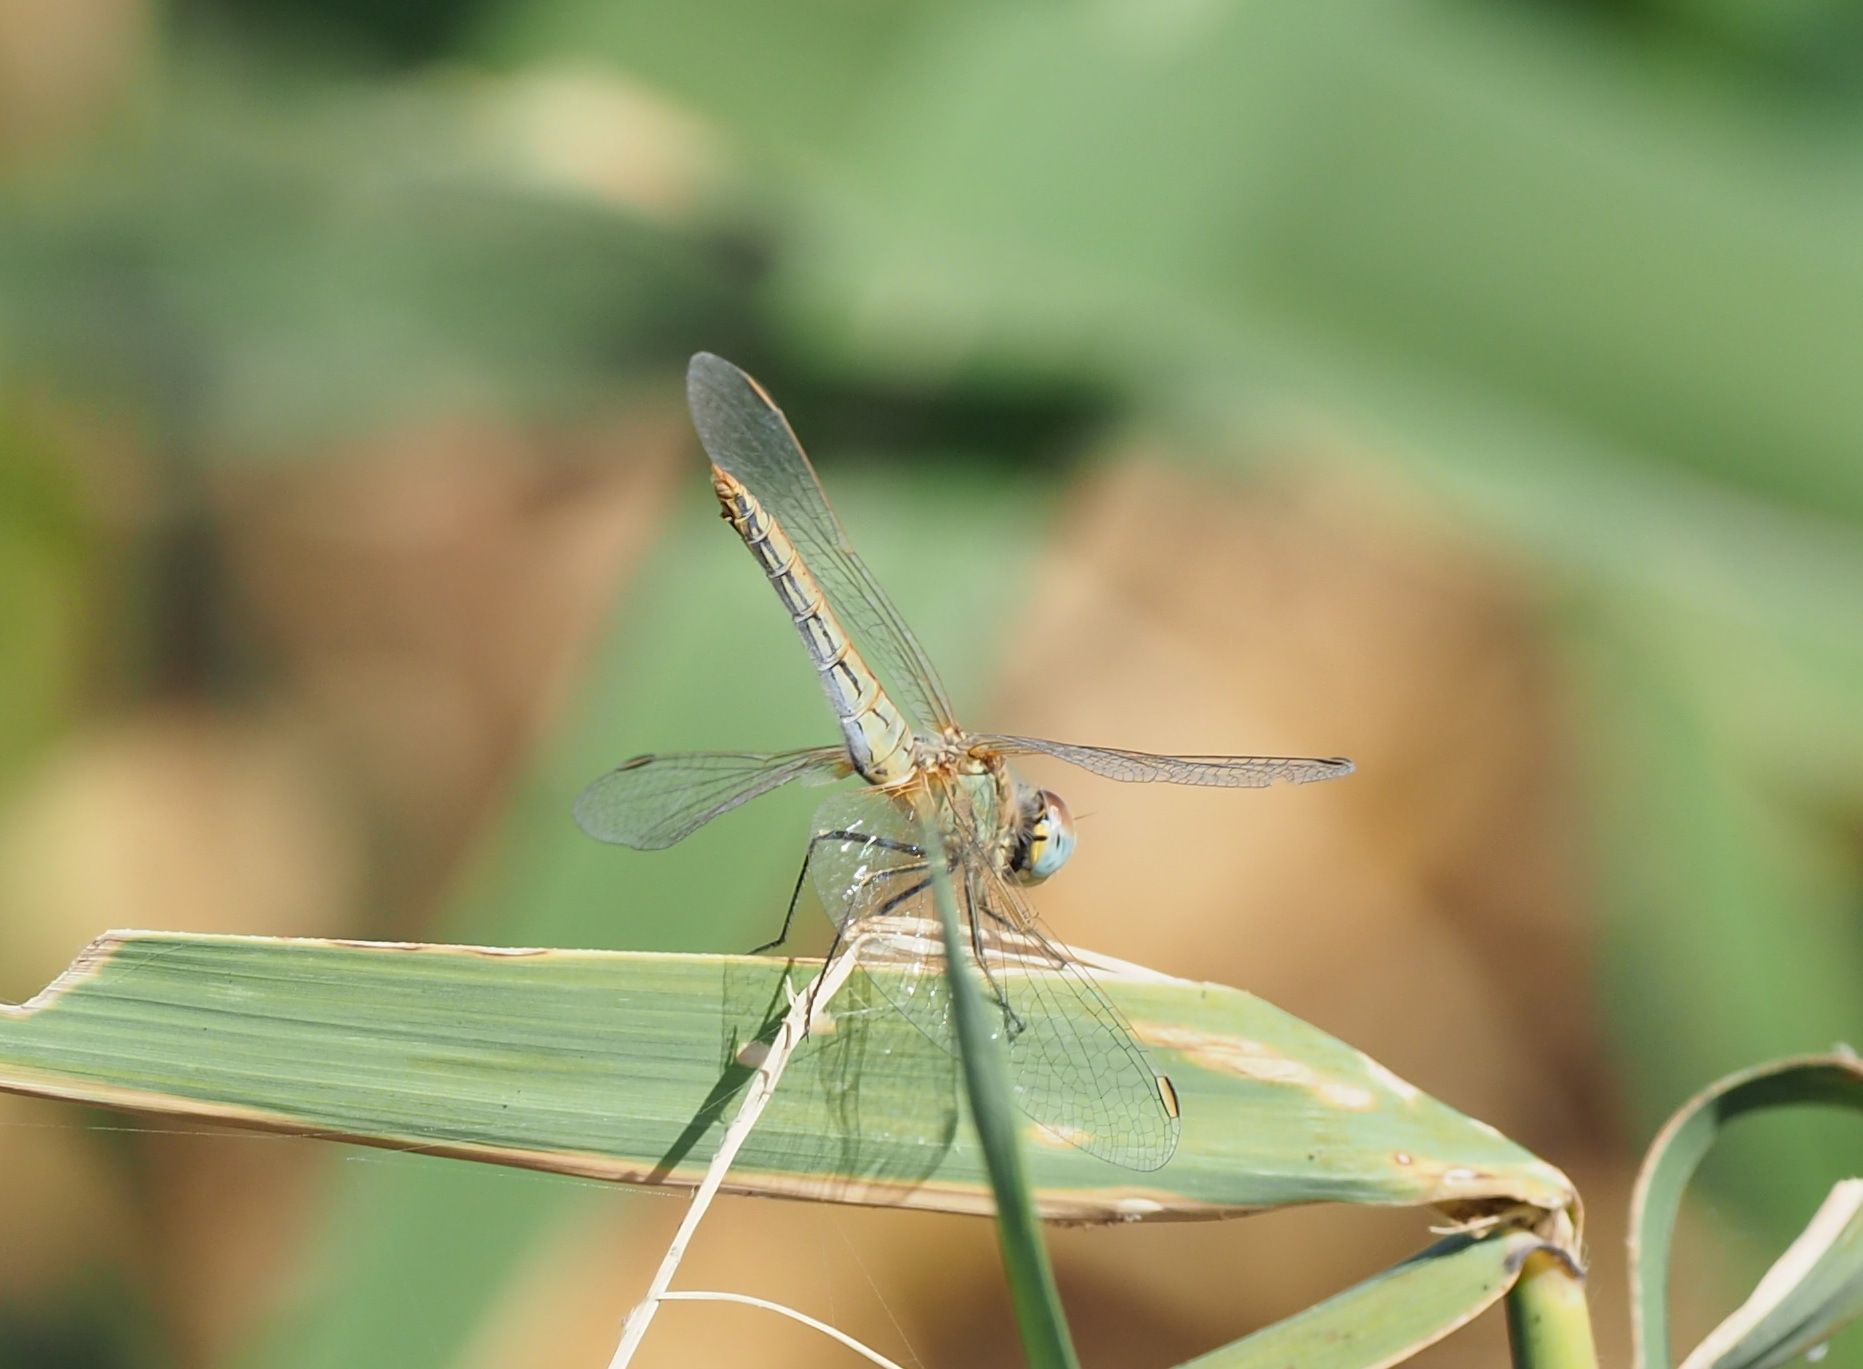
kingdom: Animalia
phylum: Arthropoda
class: Insecta
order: Odonata
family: Libellulidae
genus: Sympetrum
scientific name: Sympetrum fonscolombii
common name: Red-veined darter
